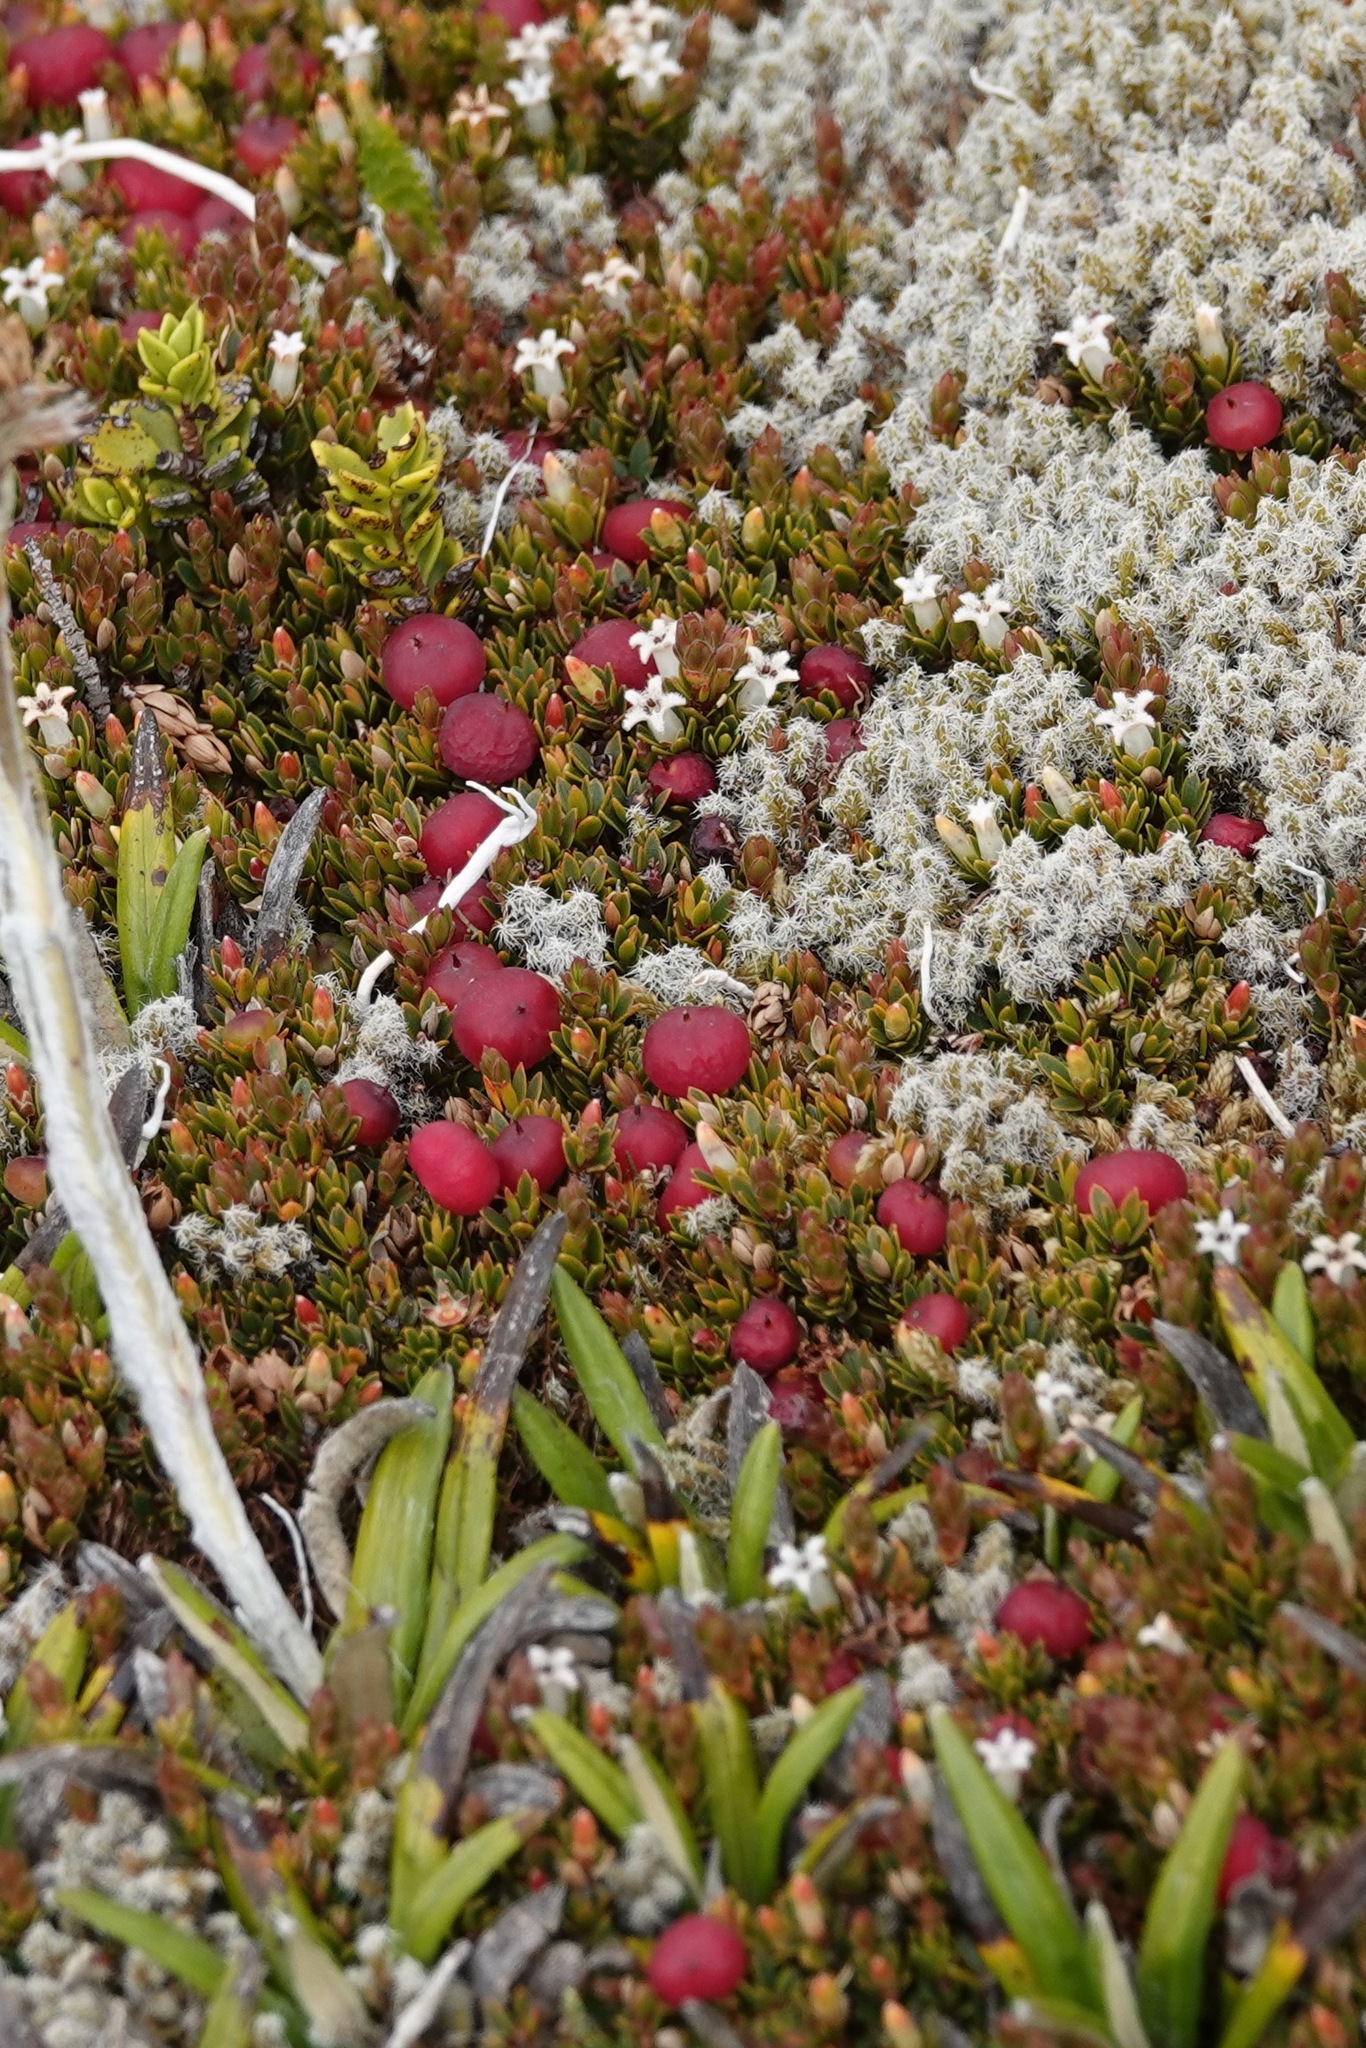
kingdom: Plantae
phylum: Tracheophyta
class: Magnoliopsida
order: Ericales
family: Ericaceae
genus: Pentachondra
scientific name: Pentachondra pumila
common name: Carpet-heath
